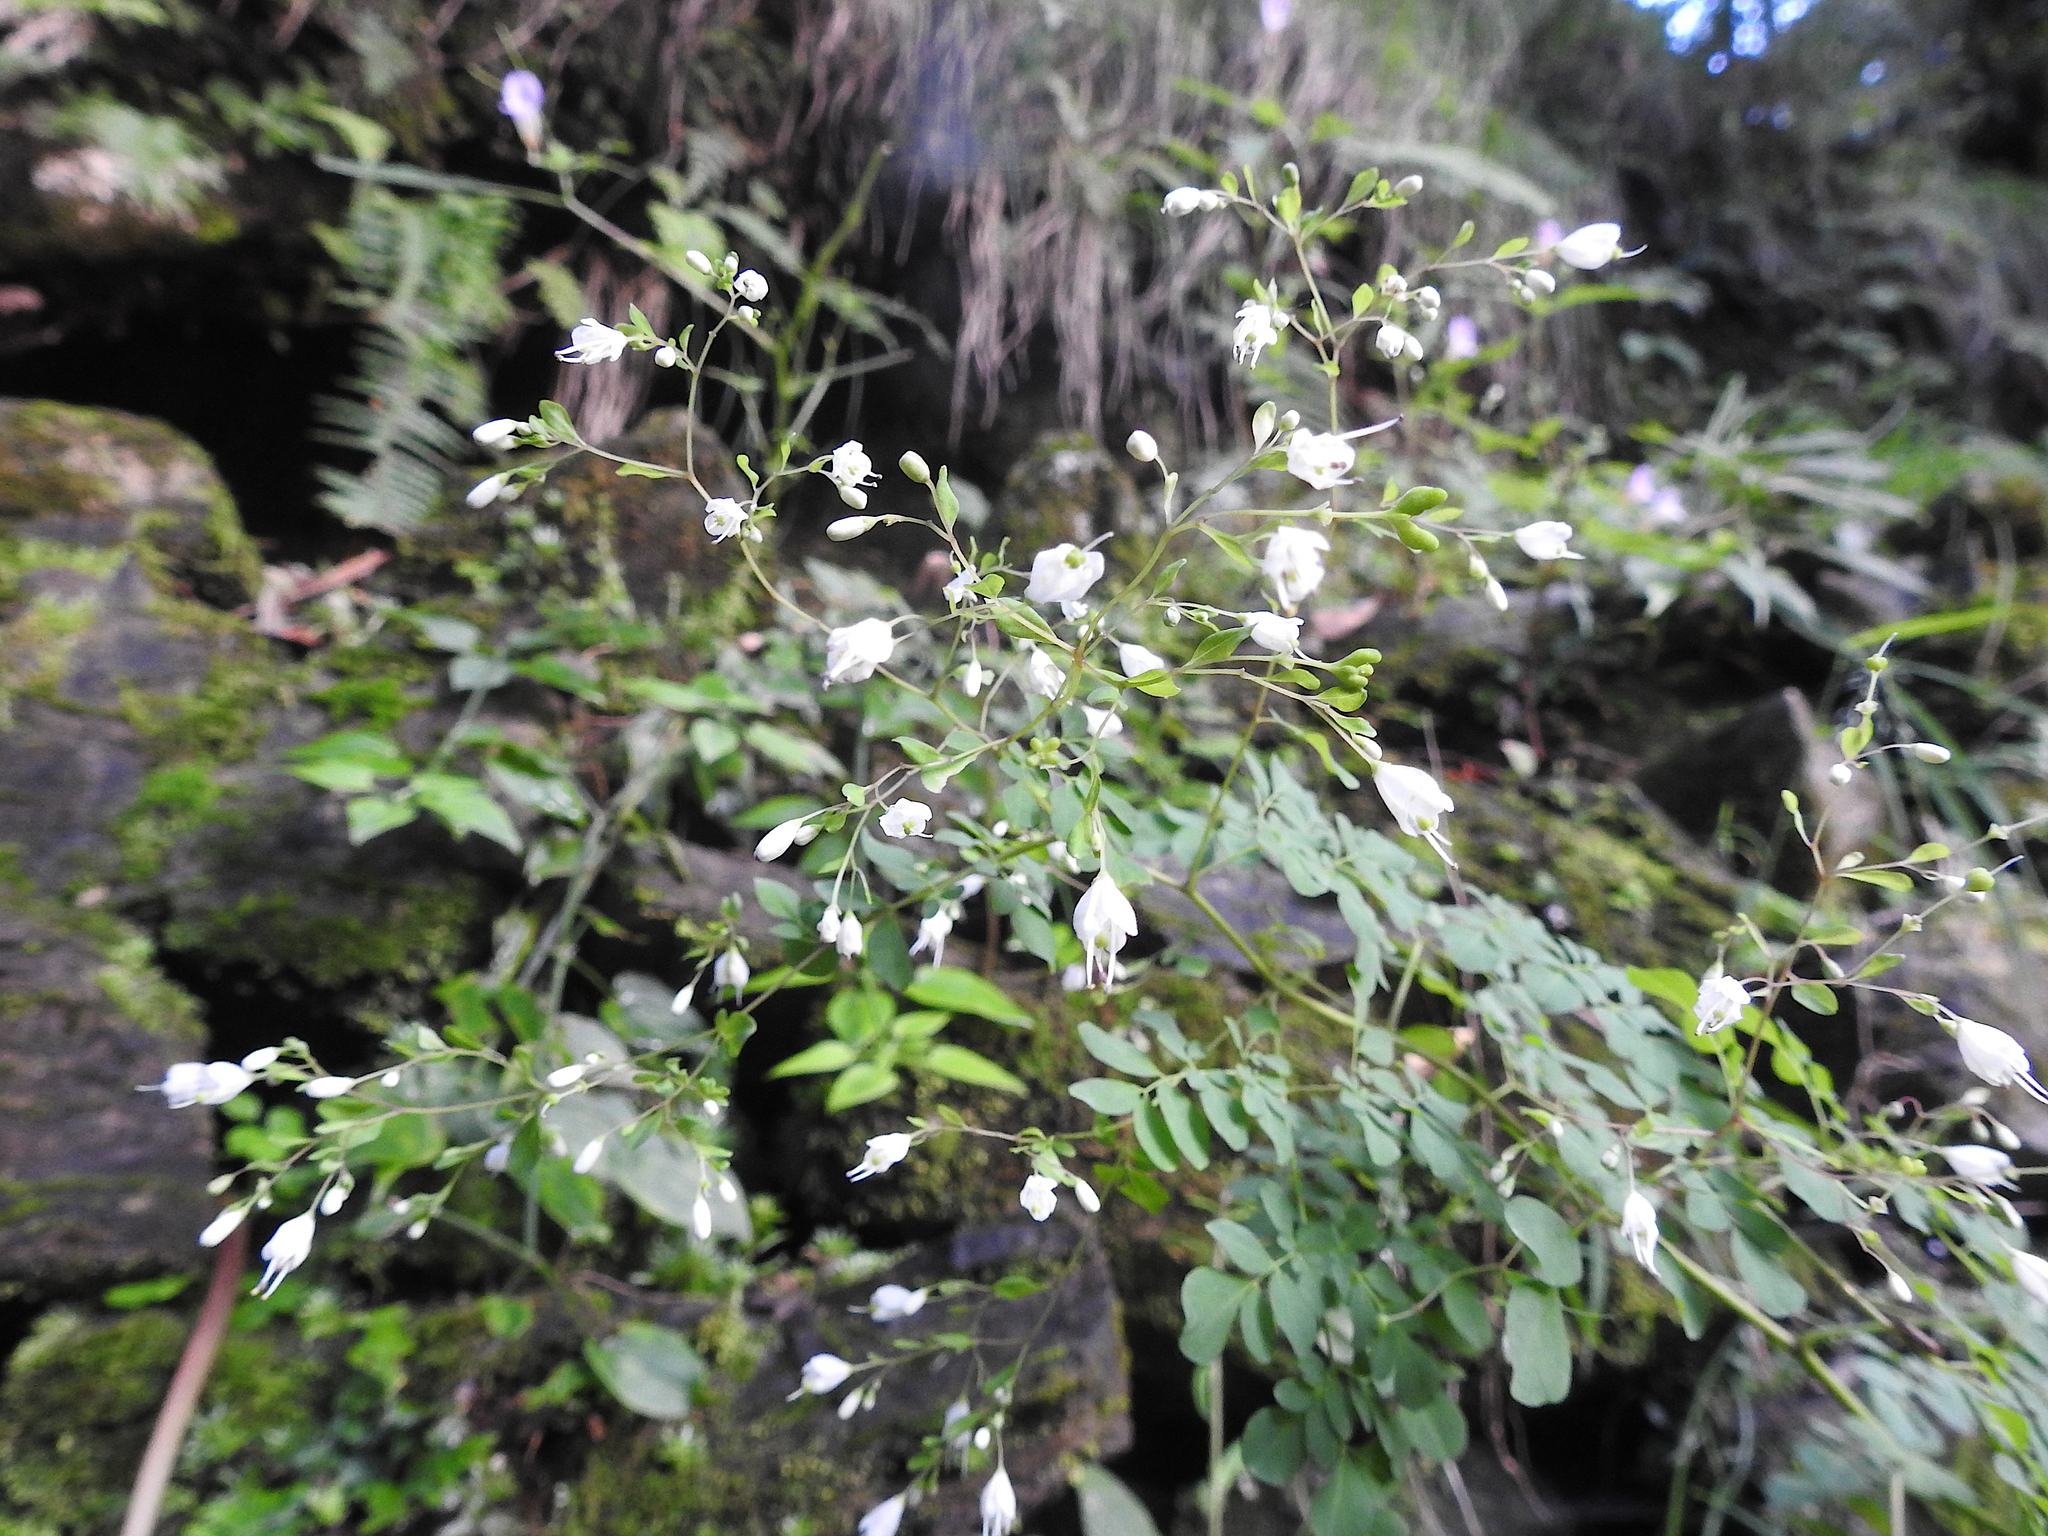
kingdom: Plantae
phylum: Tracheophyta
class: Magnoliopsida
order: Sapindales
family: Rutaceae
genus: Boenninghausenia
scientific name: Boenninghausenia albiflora
